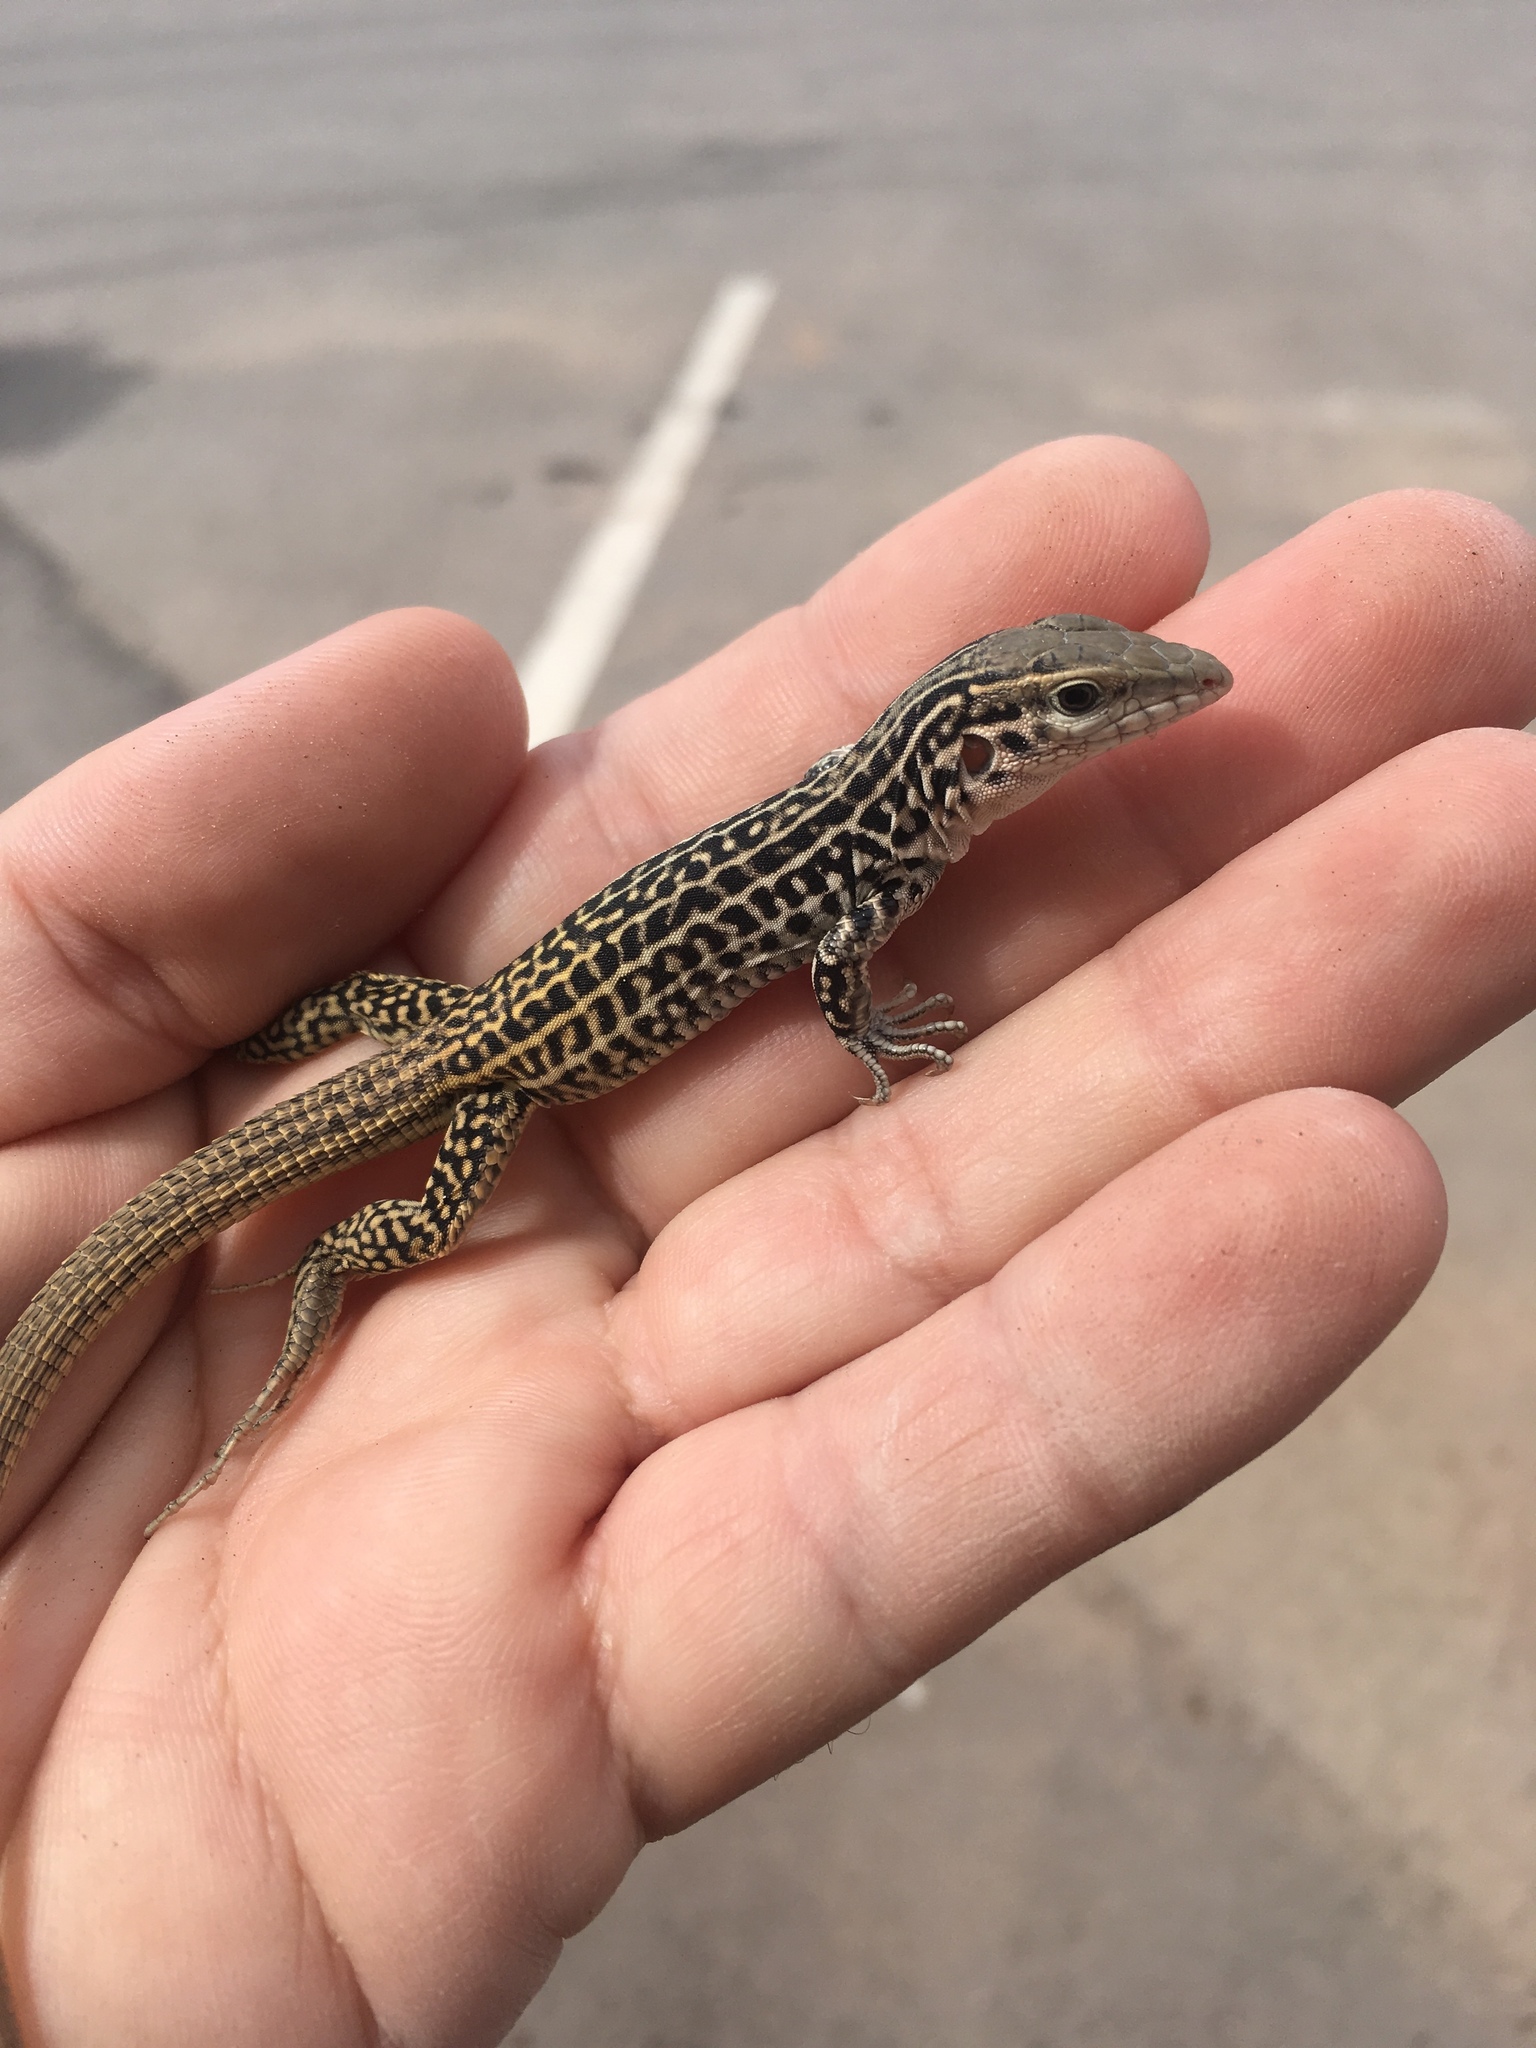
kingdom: Animalia
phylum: Chordata
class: Squamata
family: Teiidae
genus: Aspidoscelis
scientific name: Aspidoscelis tesselatus
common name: Common checkered whiptail [tesselata]
